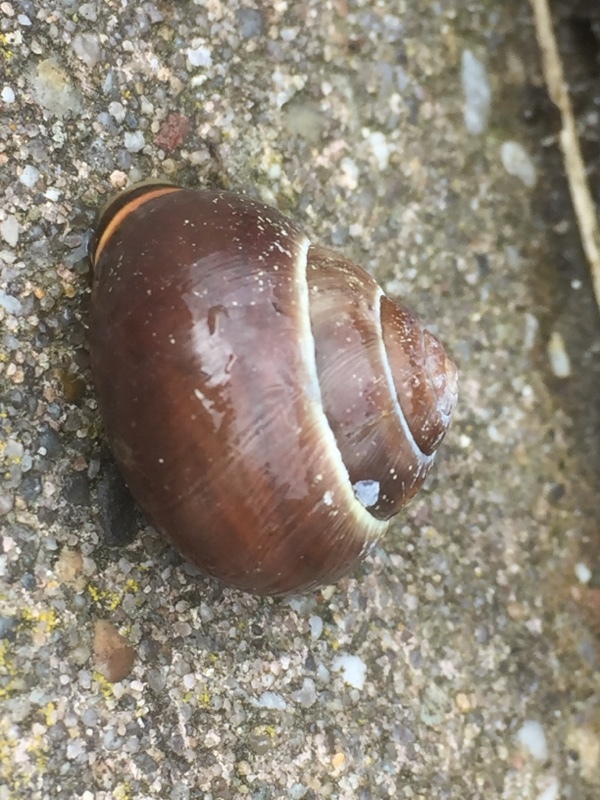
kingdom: Animalia
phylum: Mollusca
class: Gastropoda
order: Stylommatophora
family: Helicidae
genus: Cepaea
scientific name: Cepaea nemoralis
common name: Grovesnail
